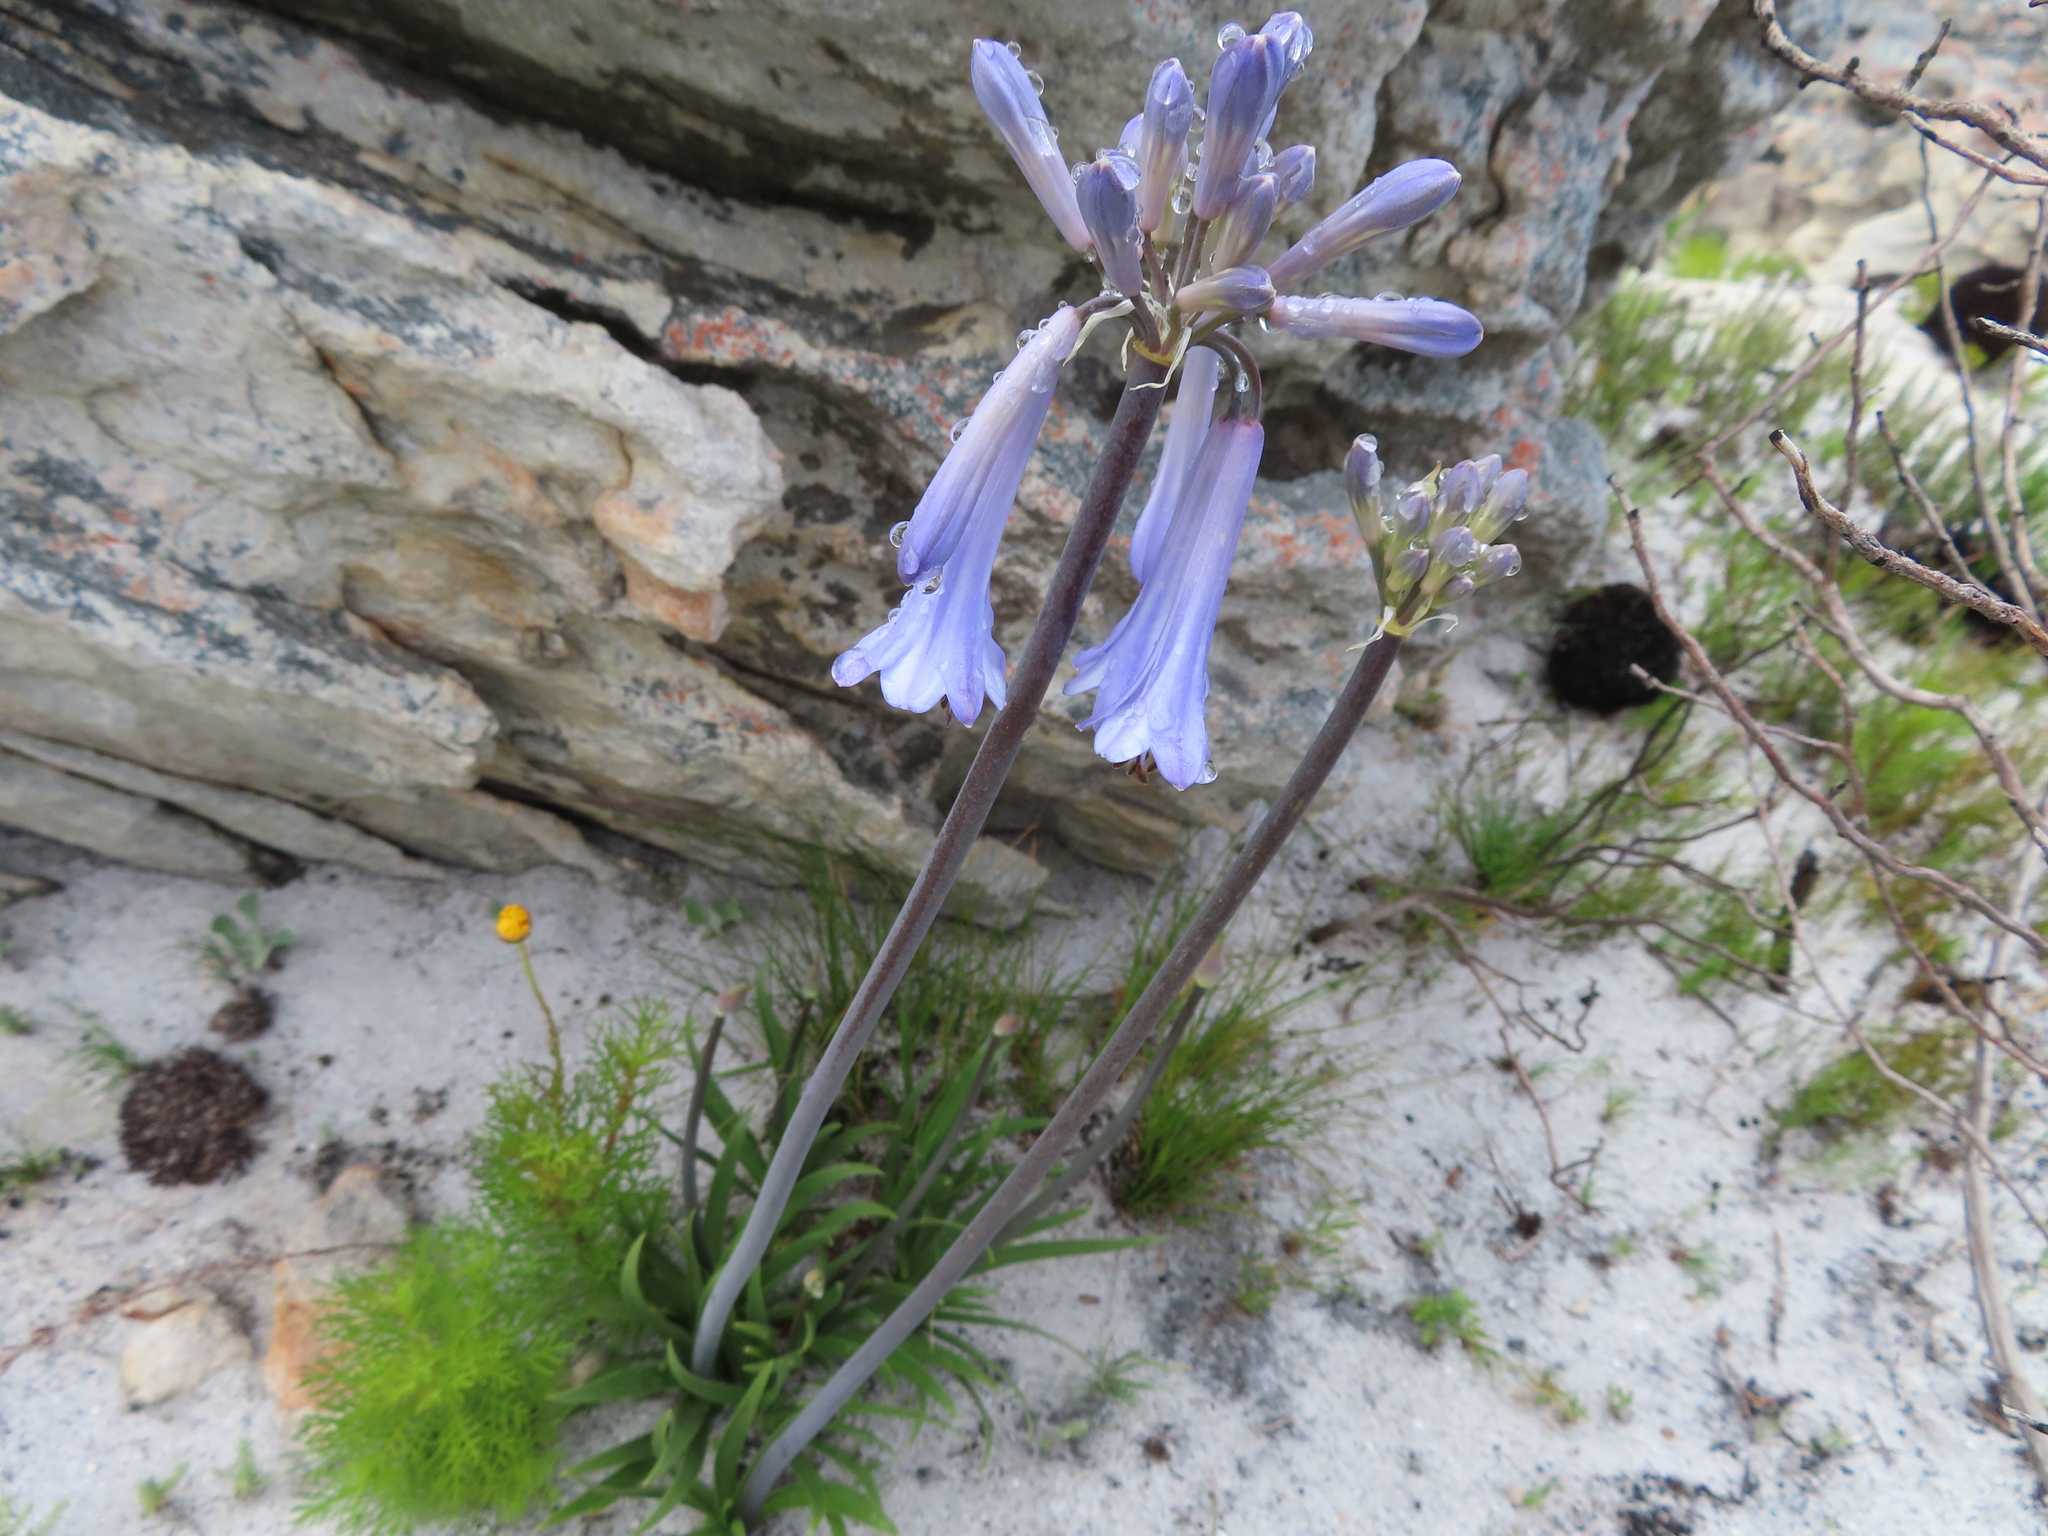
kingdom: Plantae
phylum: Tracheophyta
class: Liliopsida
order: Asparagales
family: Amaryllidaceae
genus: Agapanthus
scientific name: Agapanthus walshii
